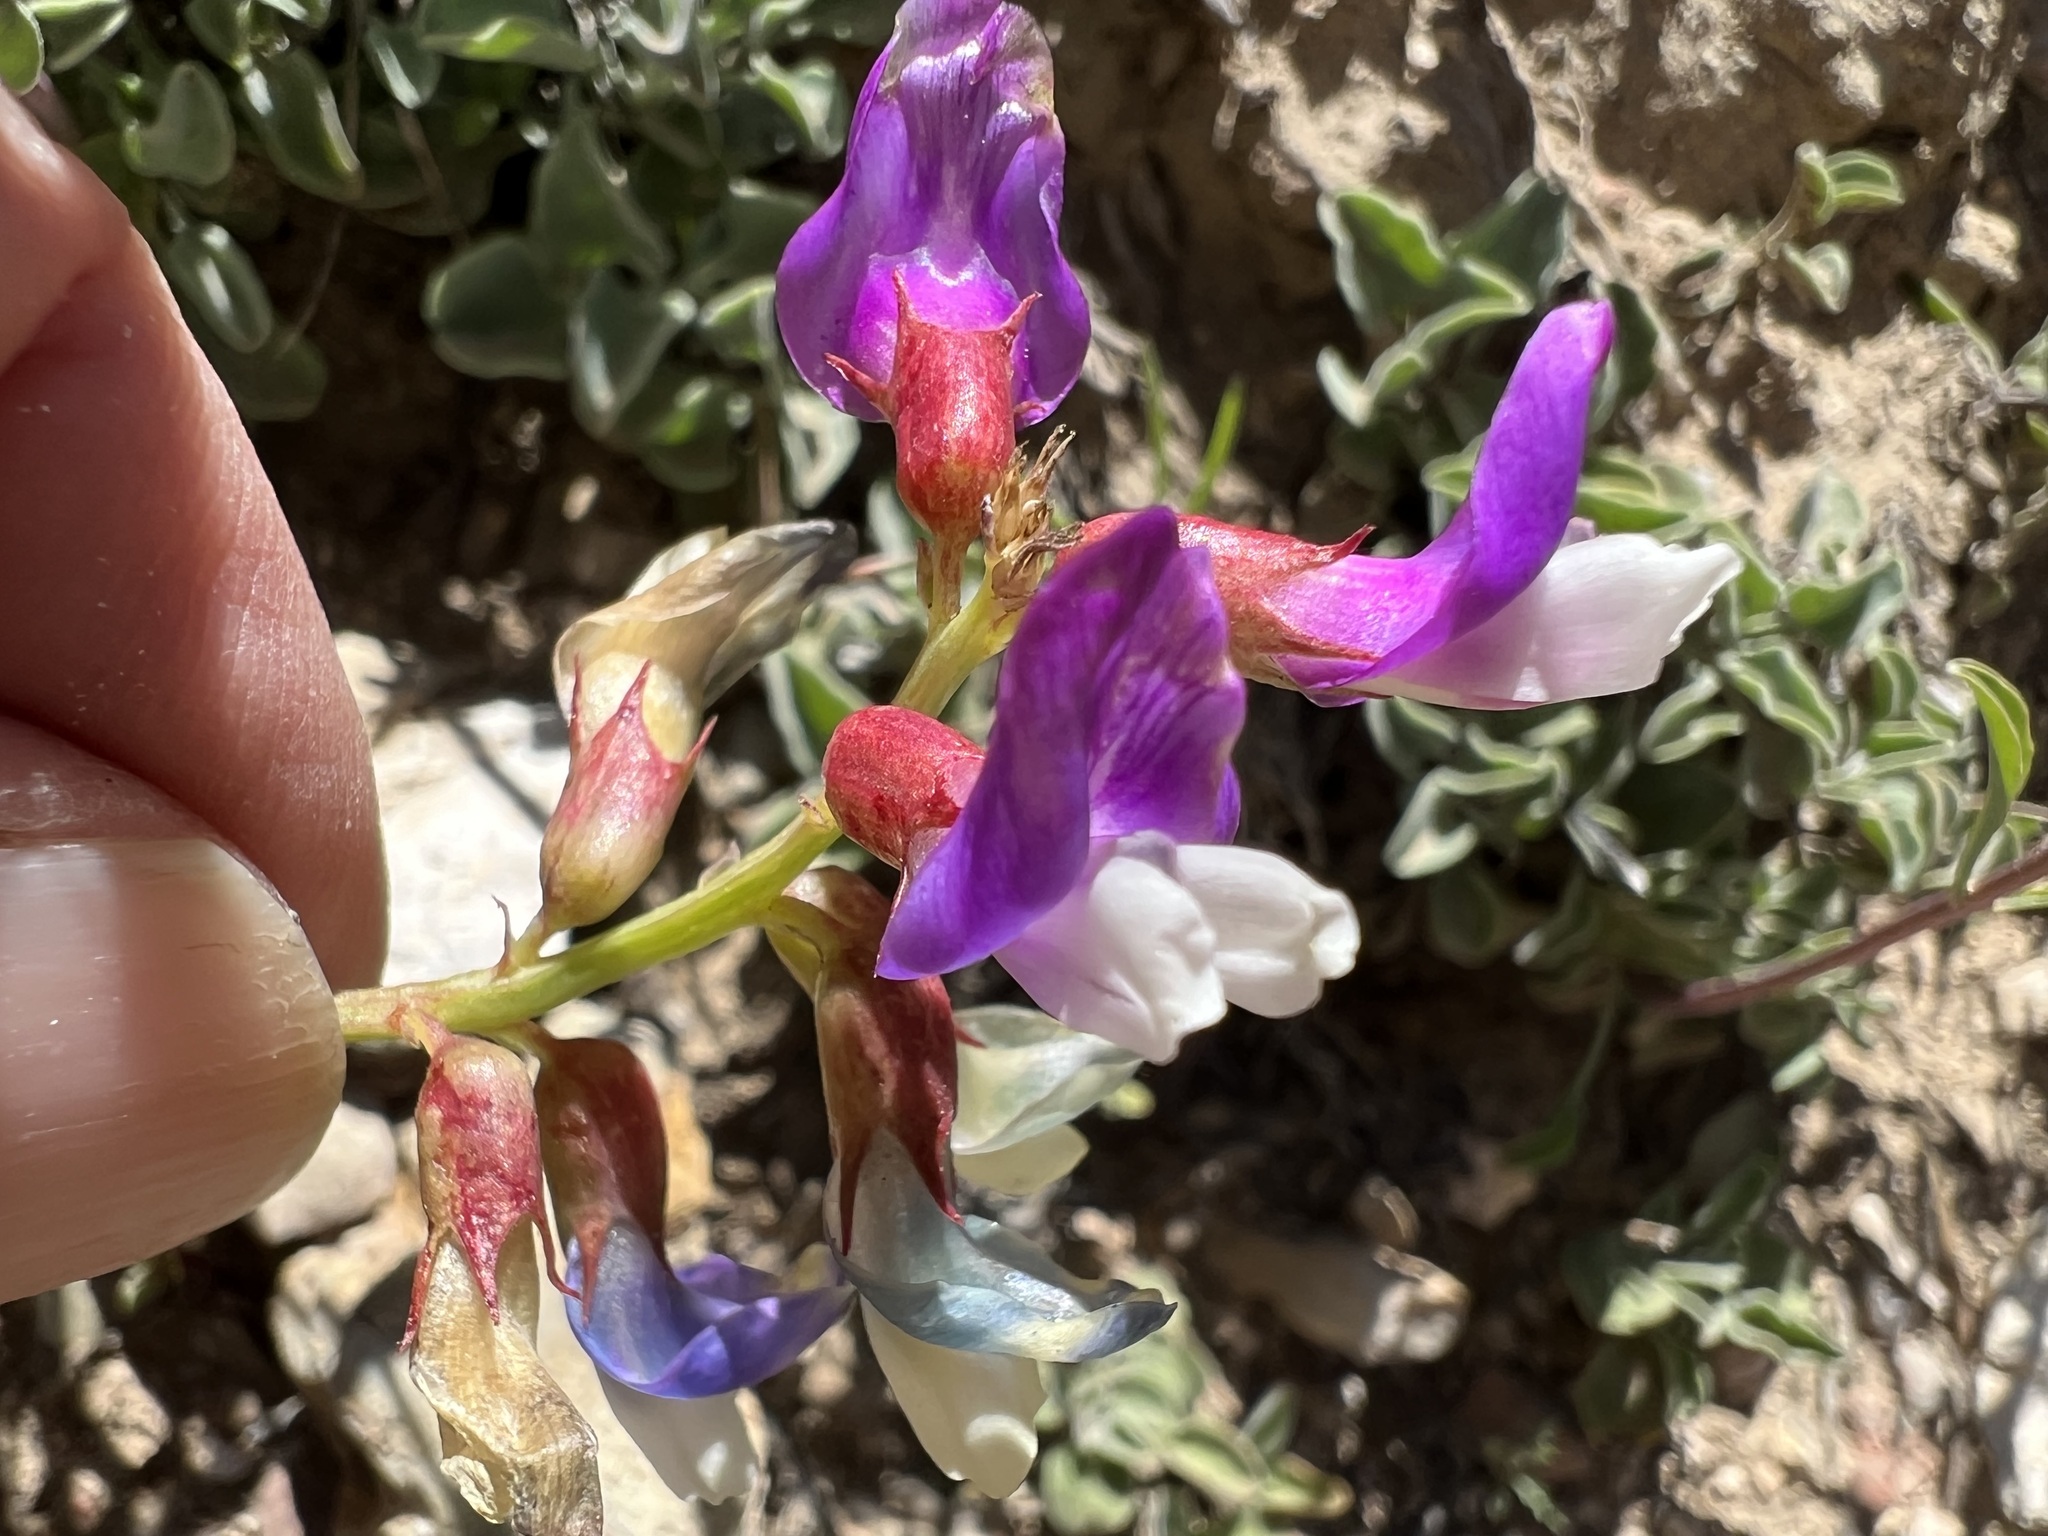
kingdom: Plantae
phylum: Tracheophyta
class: Magnoliopsida
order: Fabales
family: Fabaceae
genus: Astragalus
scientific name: Astragalus oophorus
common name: Egg milkvetch
